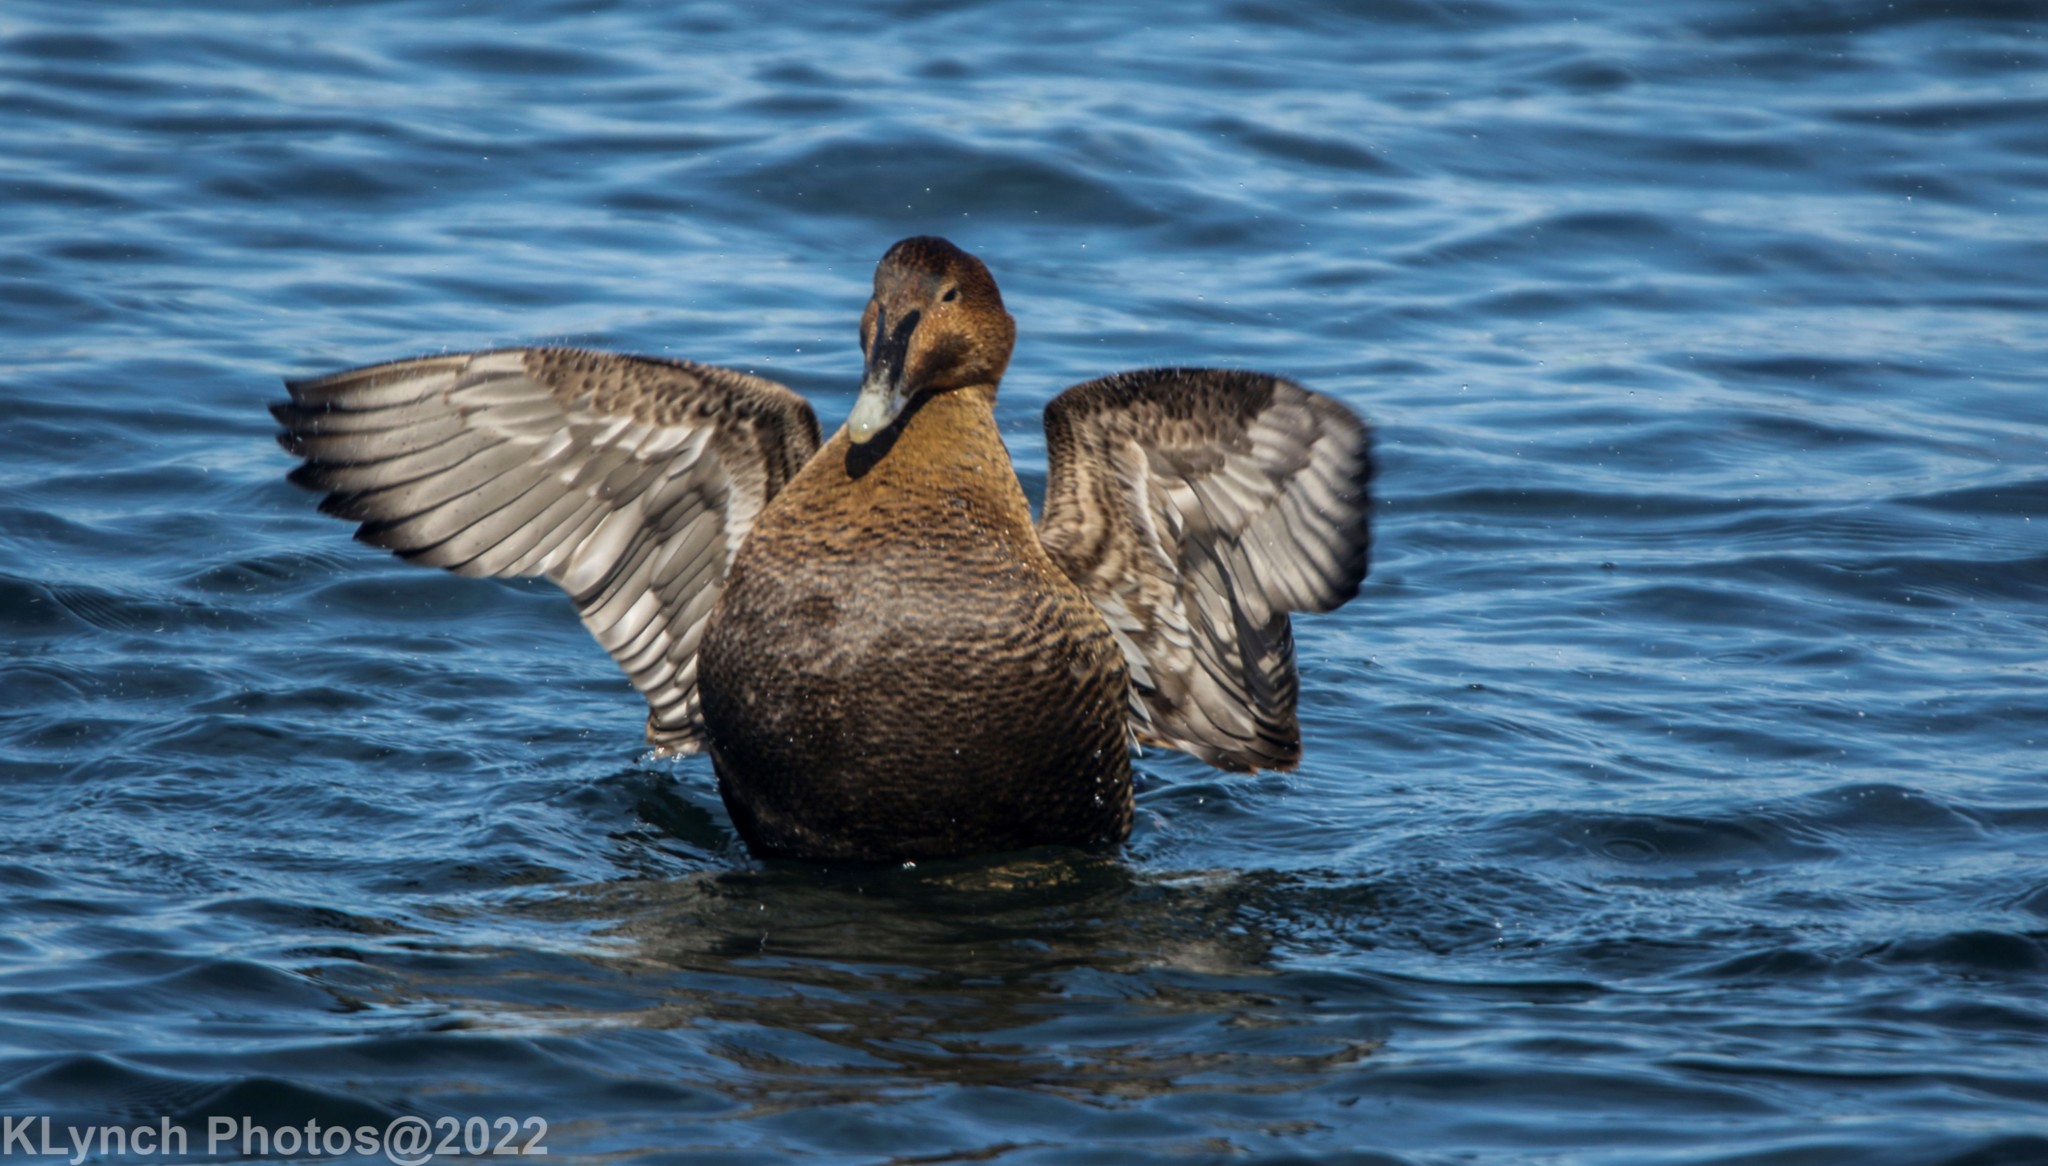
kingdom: Animalia
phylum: Chordata
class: Aves
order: Anseriformes
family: Anatidae
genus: Somateria
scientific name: Somateria mollissima
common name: Common eider
